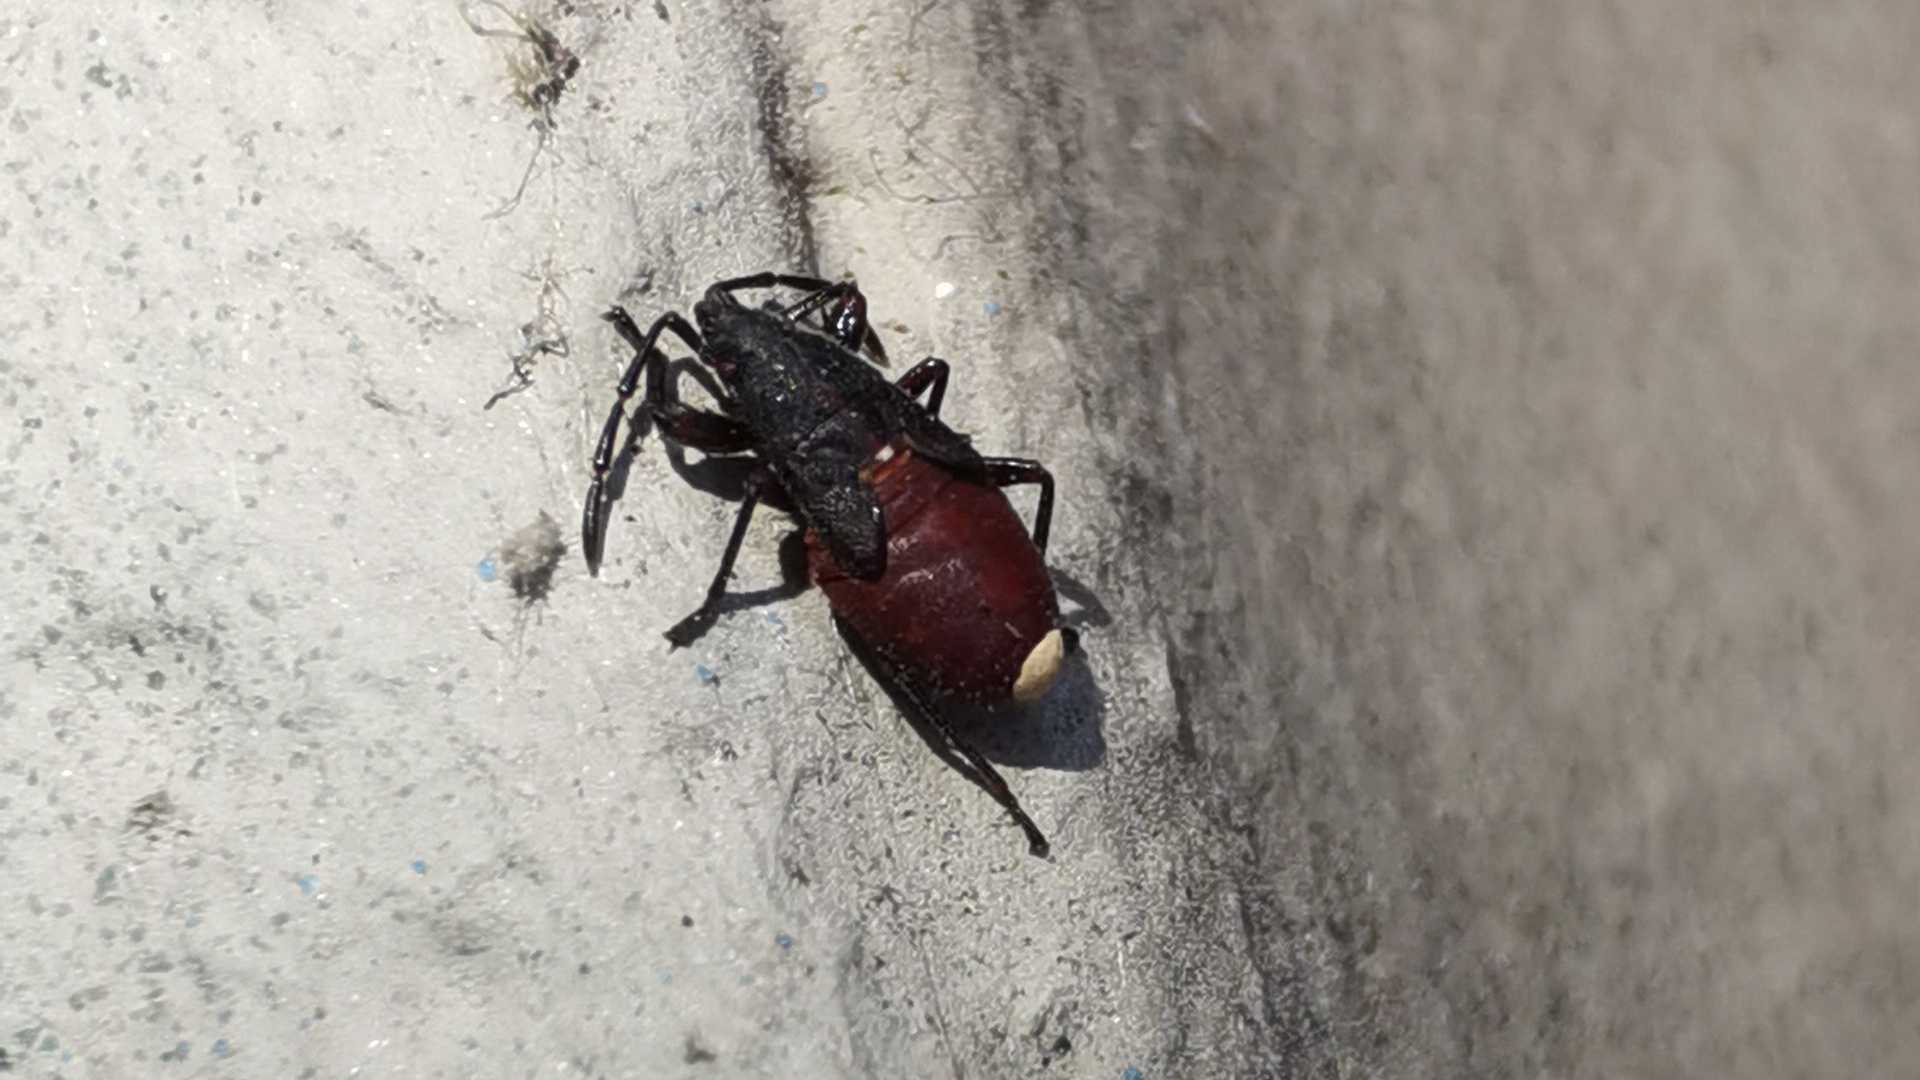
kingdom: Animalia
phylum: Arthropoda
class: Insecta
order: Hemiptera
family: Oxycarenidae
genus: Oxycarenus
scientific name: Oxycarenus lavaterae
